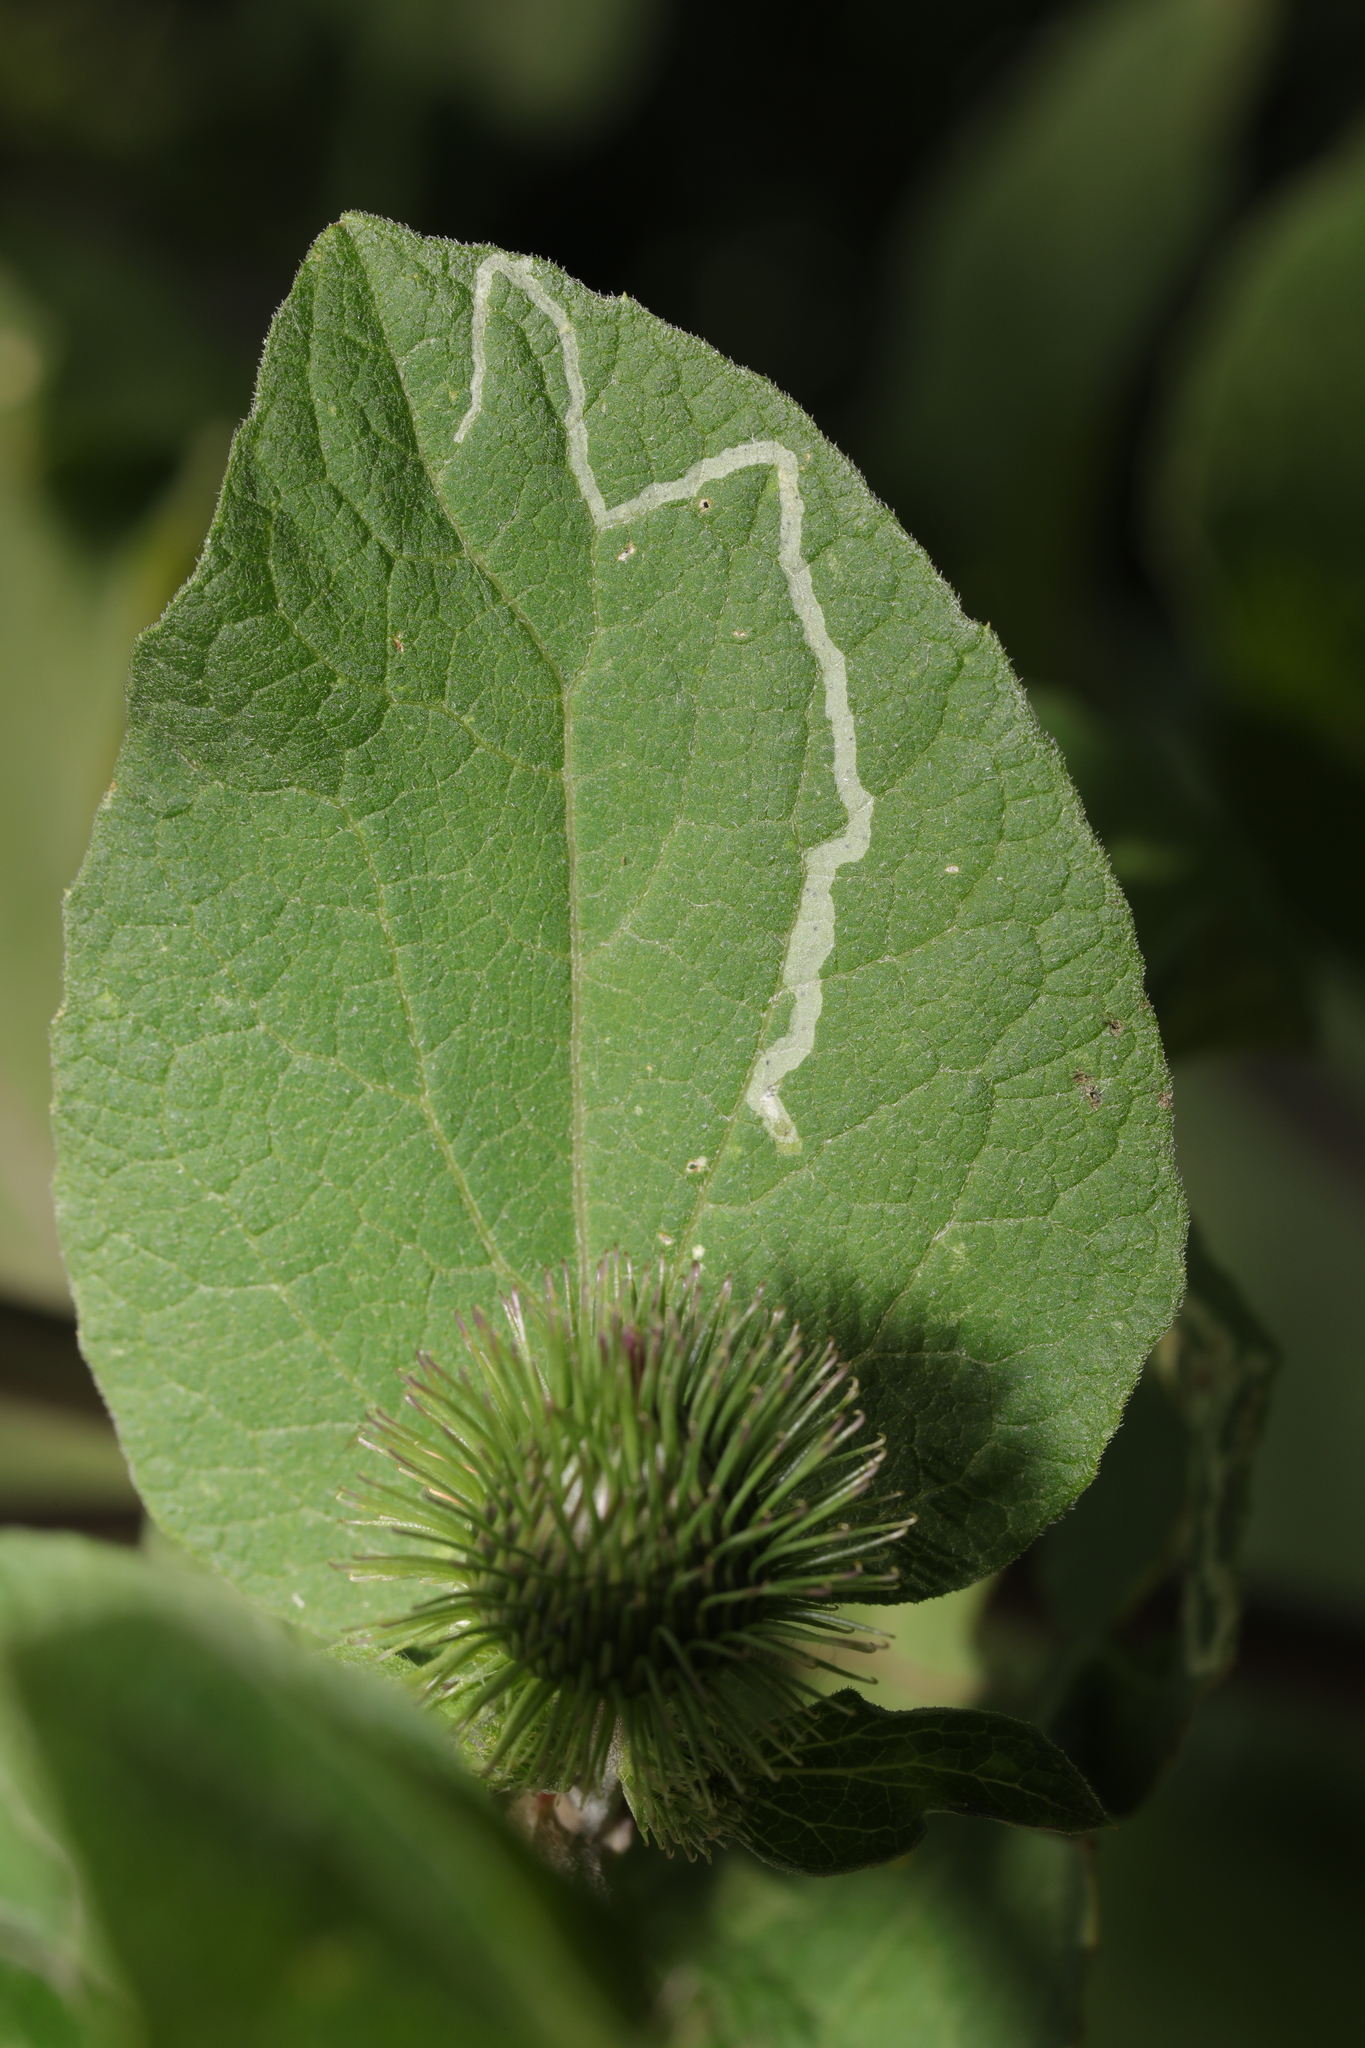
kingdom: Animalia
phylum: Arthropoda
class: Insecta
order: Diptera
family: Agromyzidae
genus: Phytomyza
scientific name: Phytomyza syngenesiae
